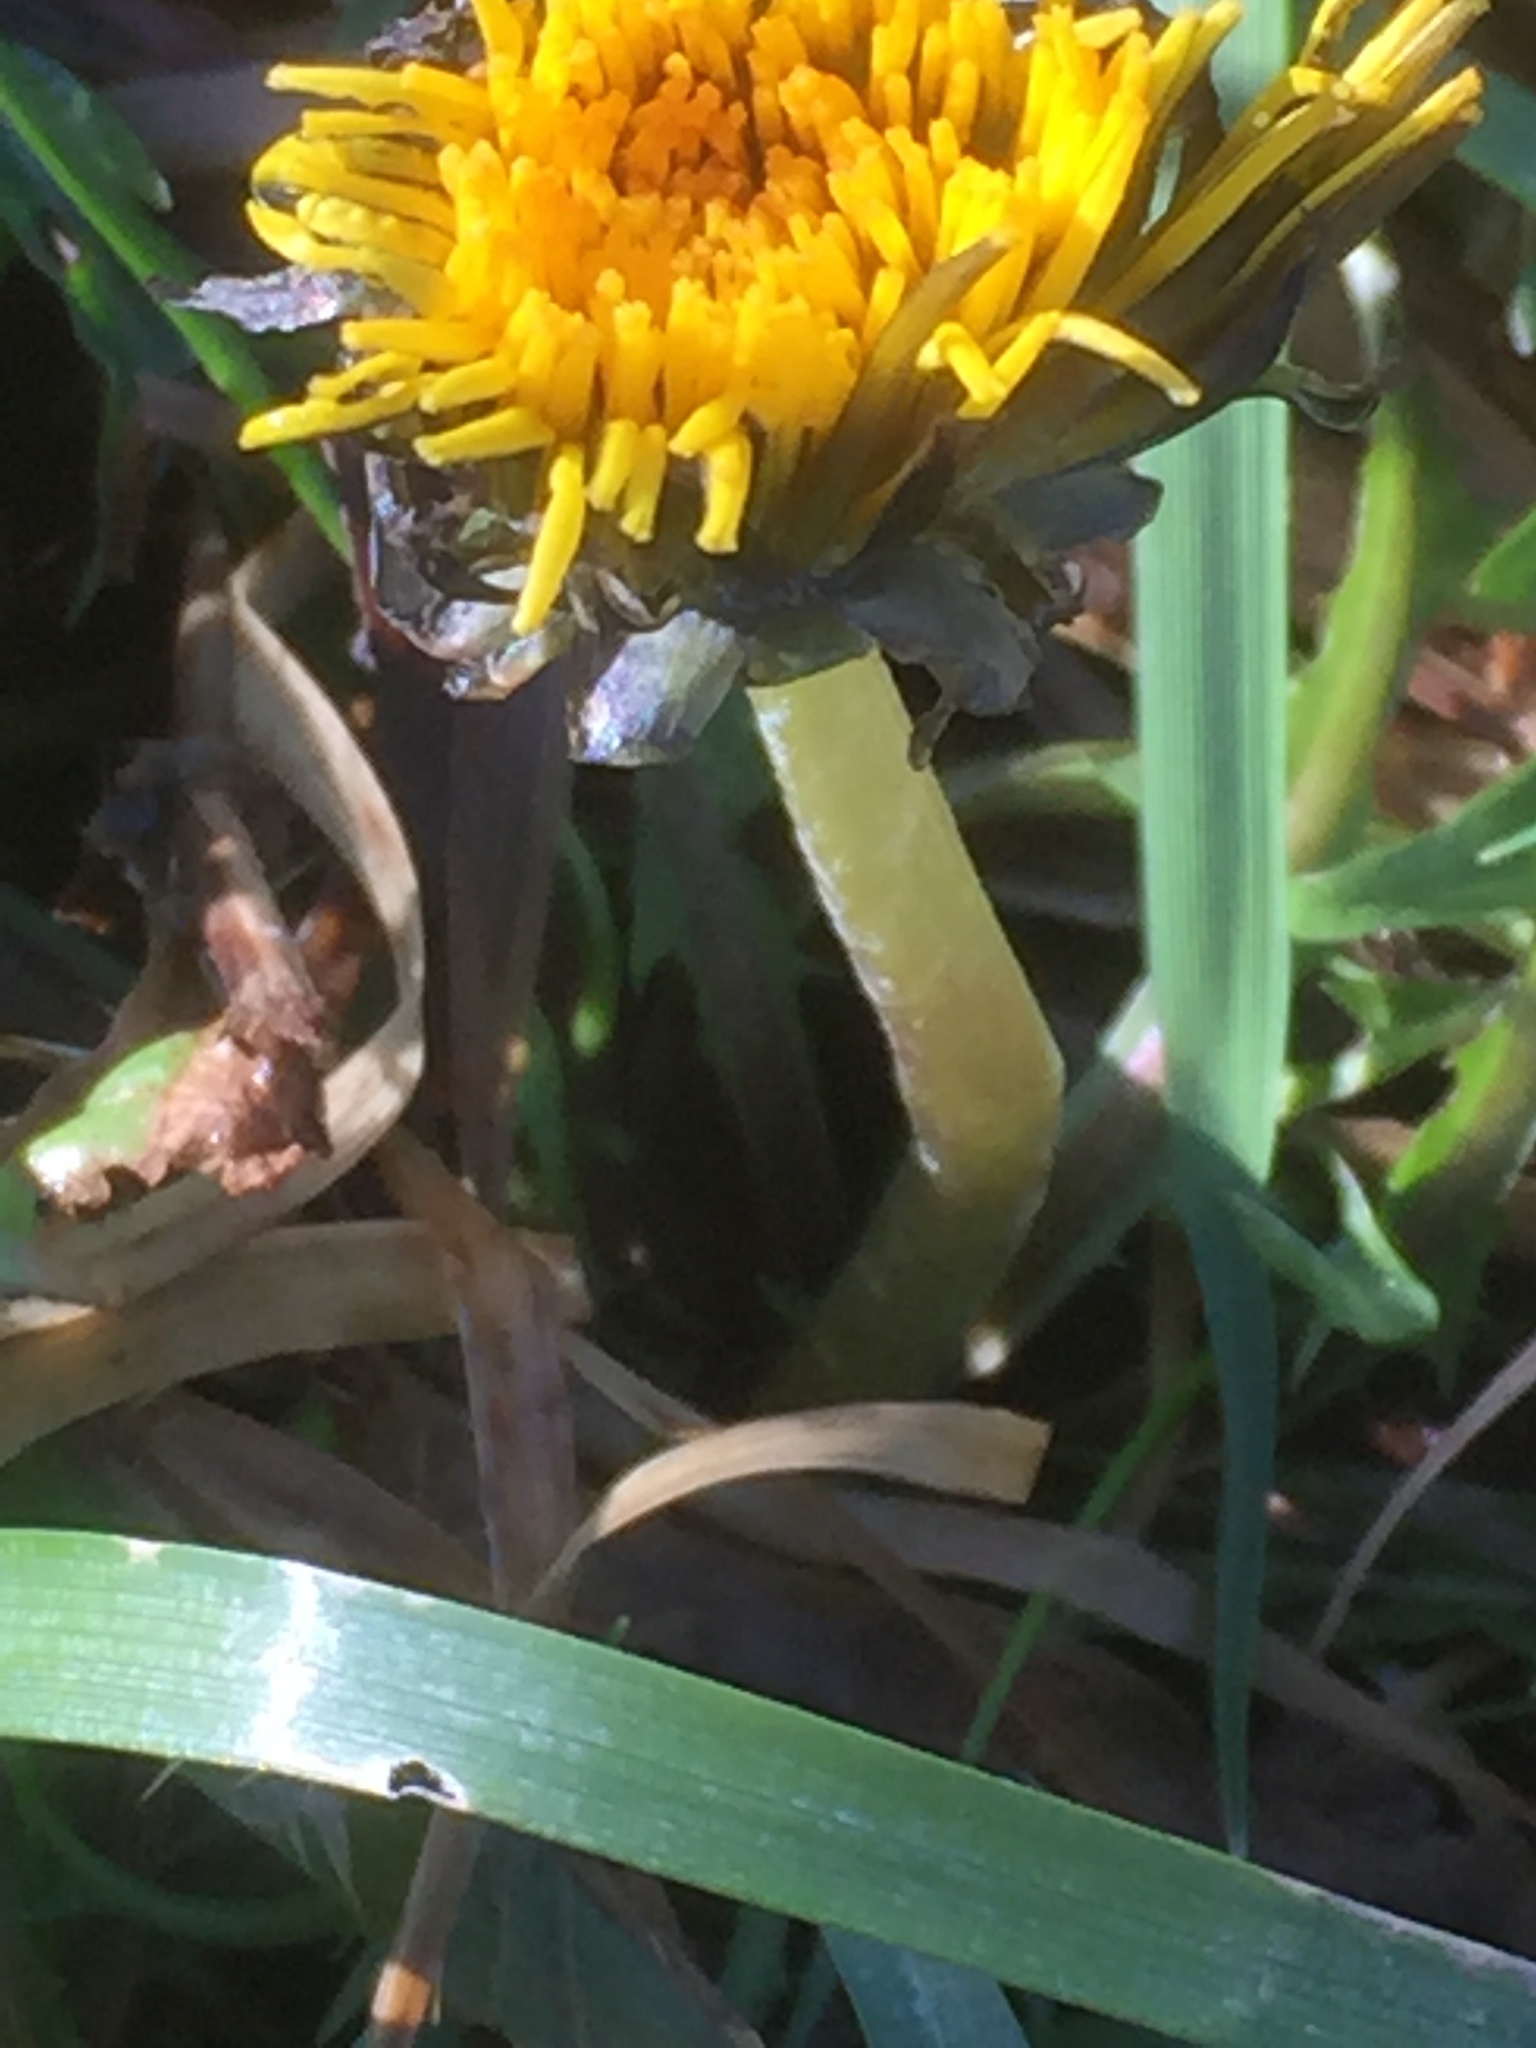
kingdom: Plantae
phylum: Tracheophyta
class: Magnoliopsida
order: Asterales
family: Asteraceae
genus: Taraxacum
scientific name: Taraxacum officinale
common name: Common dandelion
